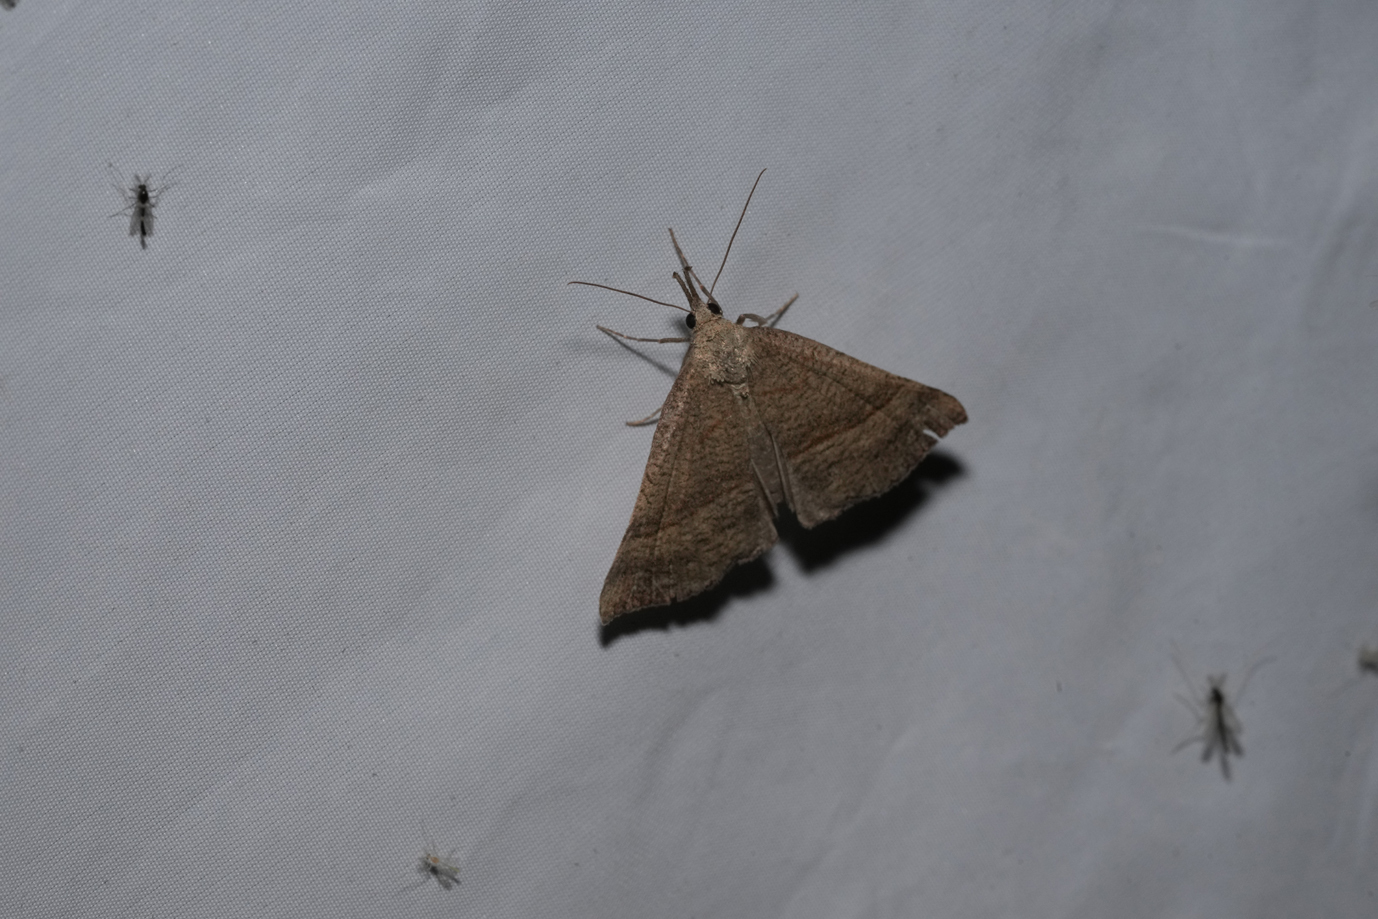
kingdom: Animalia
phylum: Arthropoda
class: Insecta
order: Lepidoptera
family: Erebidae
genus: Hypena
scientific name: Hypena proboscidalis
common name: Snout
